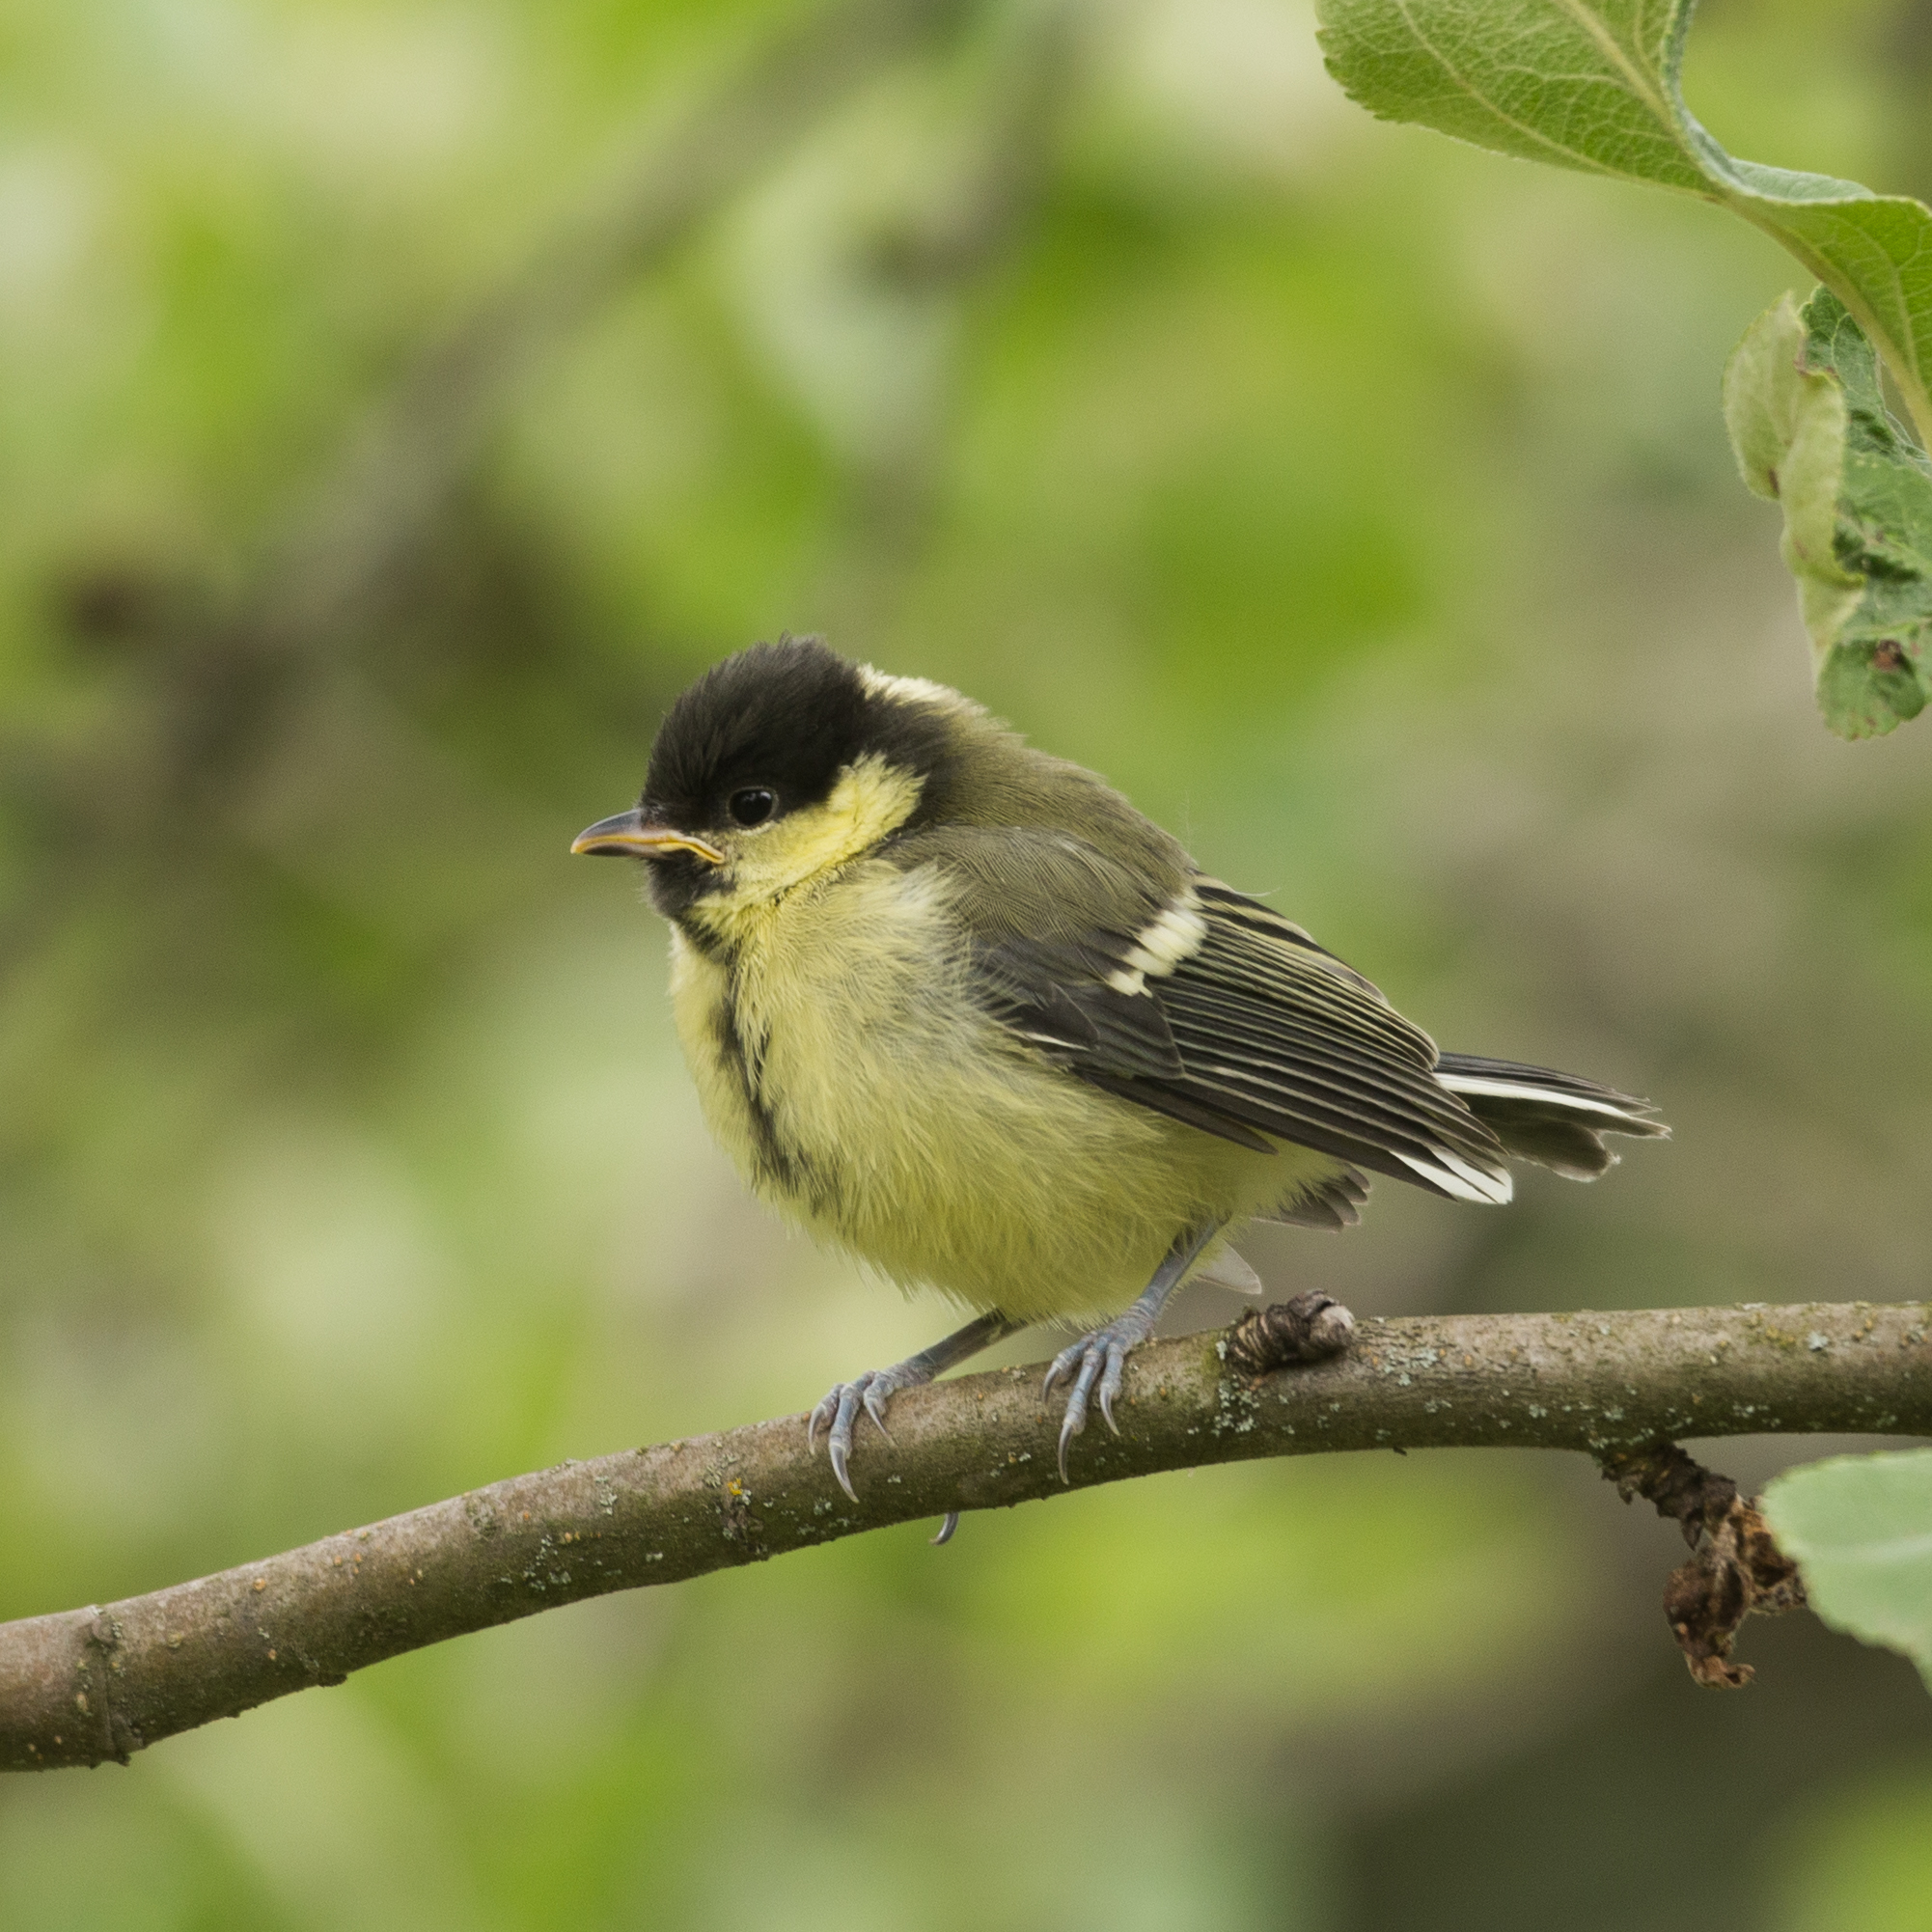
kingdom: Animalia
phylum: Chordata
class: Aves
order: Passeriformes
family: Paridae
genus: Parus
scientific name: Parus major
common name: Great tit
